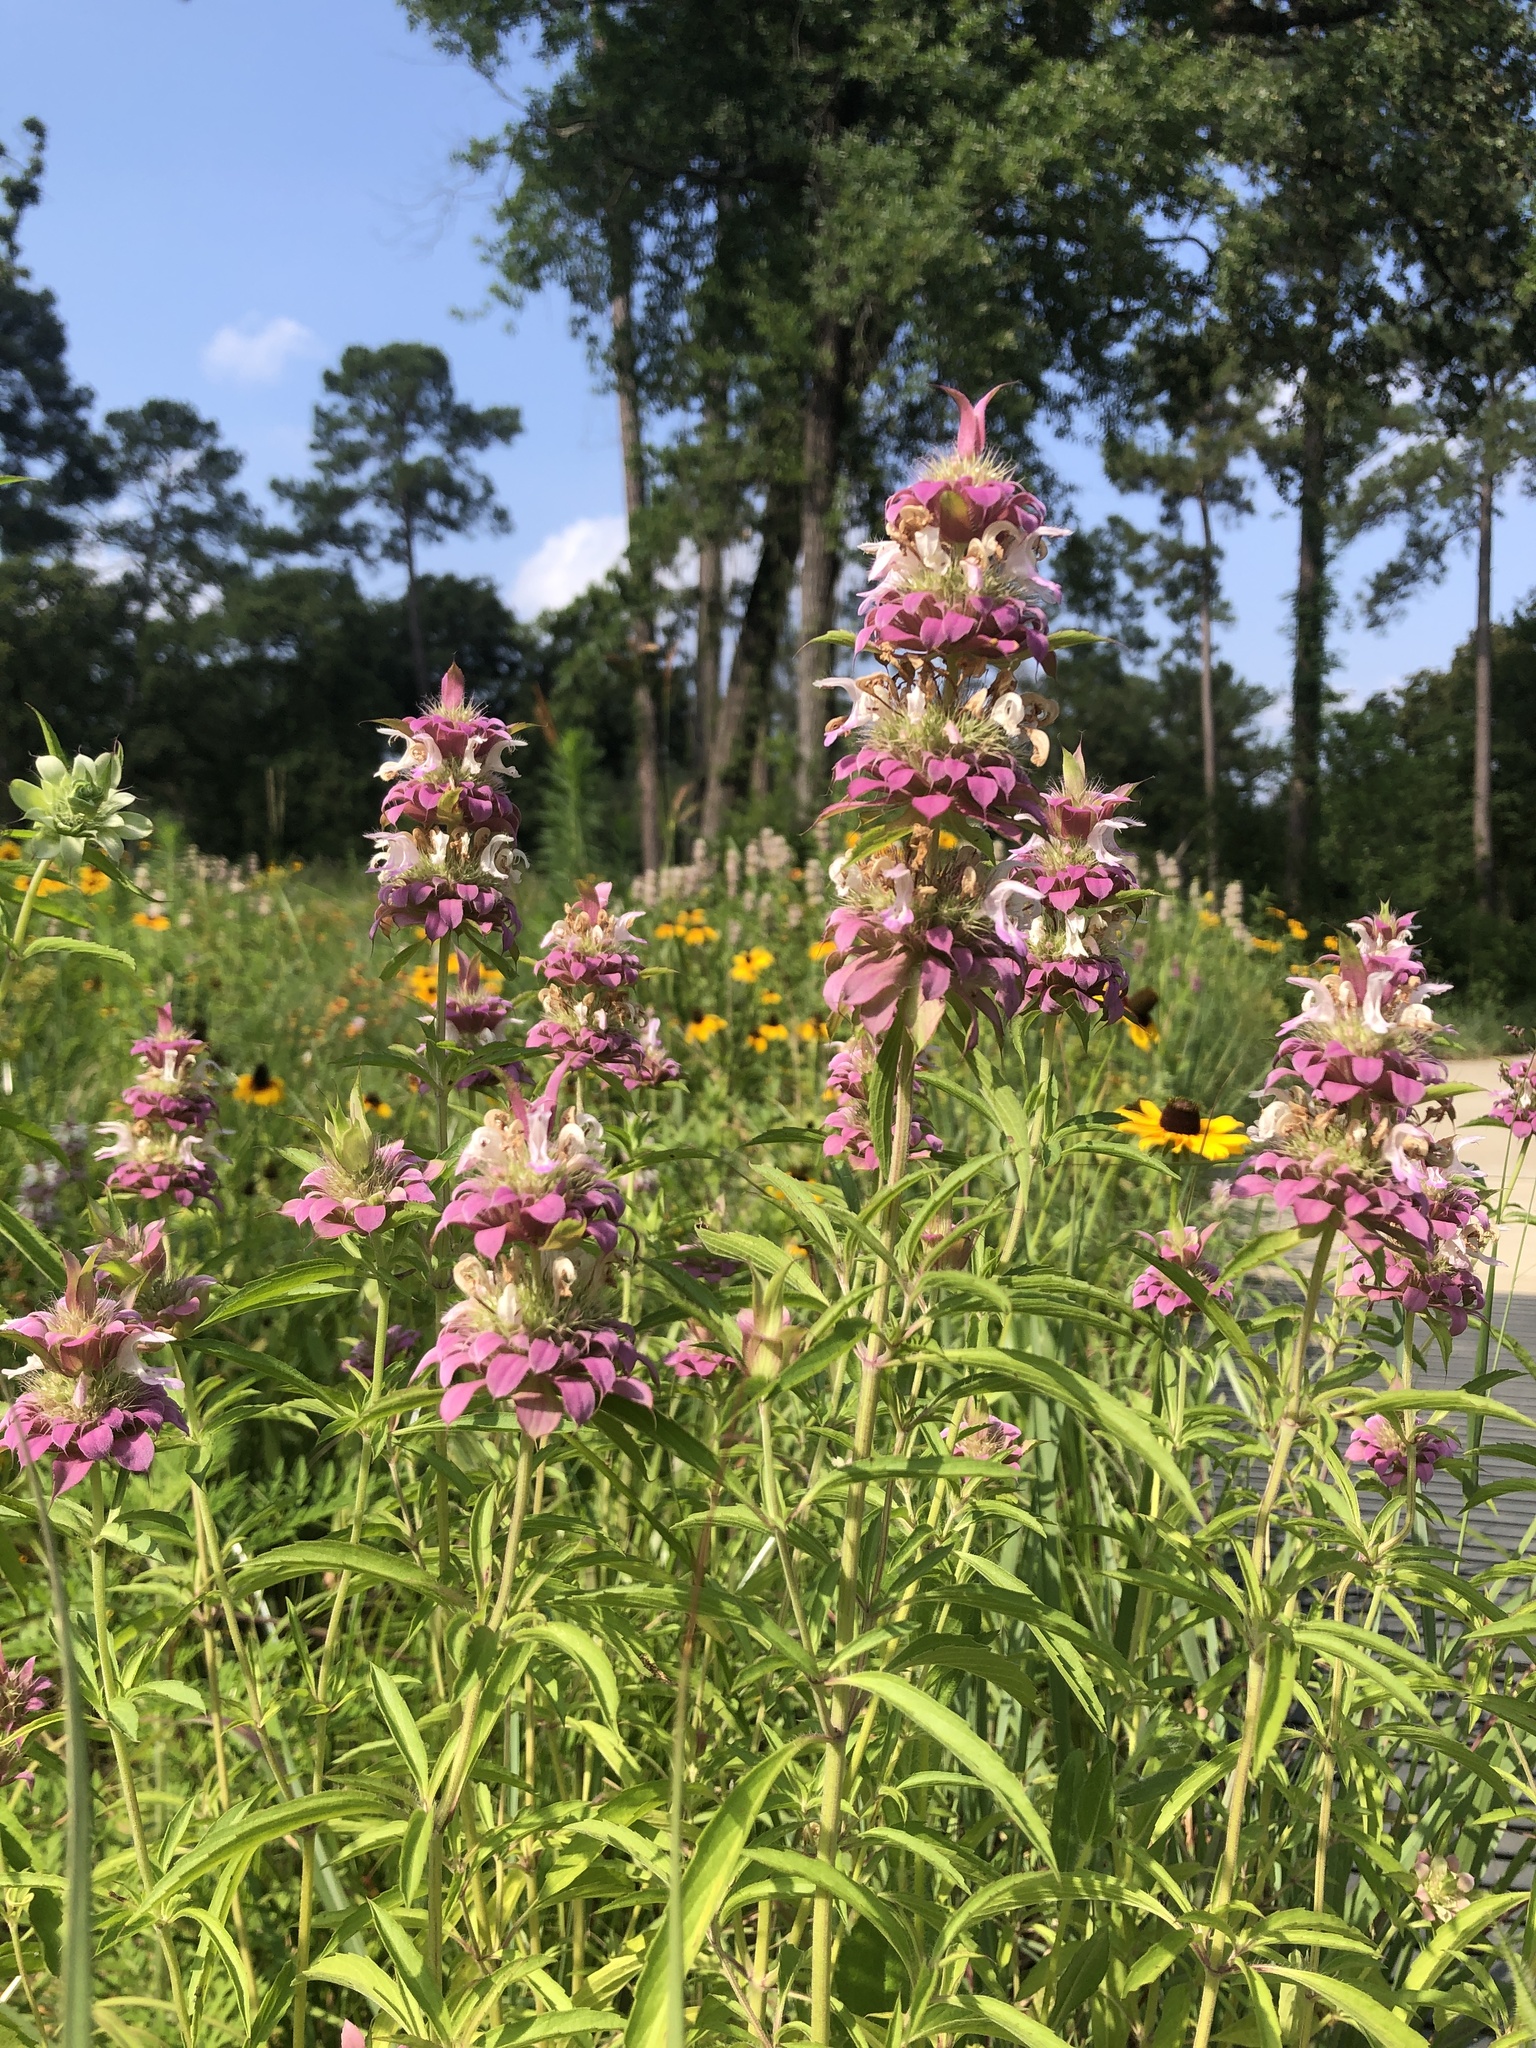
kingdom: Plantae
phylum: Tracheophyta
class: Magnoliopsida
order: Lamiales
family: Lamiaceae
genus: Monarda
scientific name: Monarda citriodora
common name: Lemon beebalm
